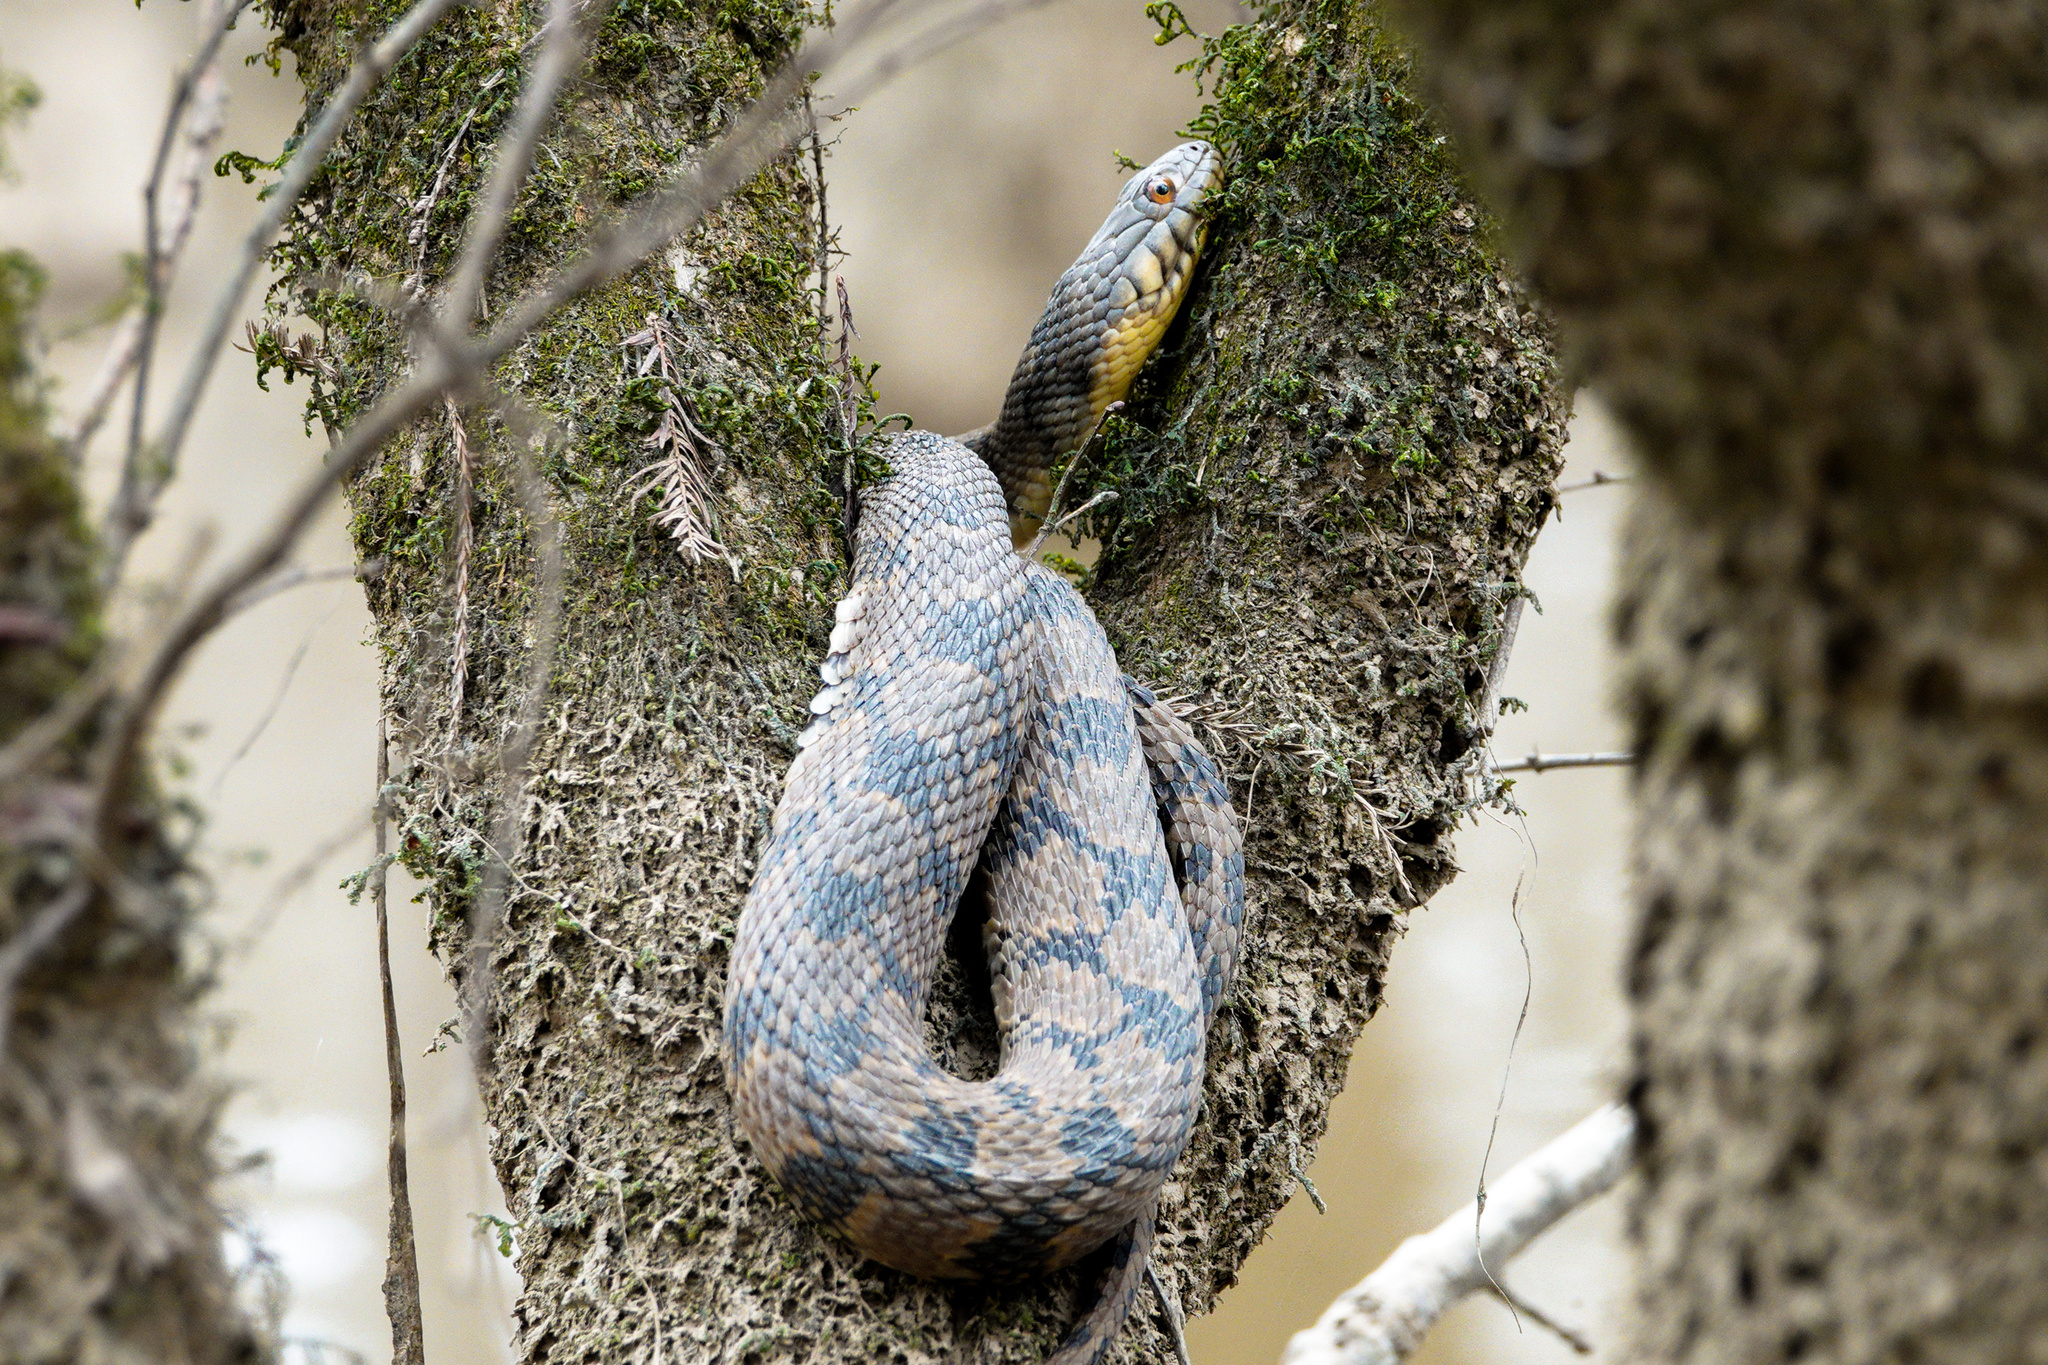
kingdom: Animalia
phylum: Chordata
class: Squamata
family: Colubridae
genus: Nerodia
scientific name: Nerodia rhombifer
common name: Diamondback water snake
